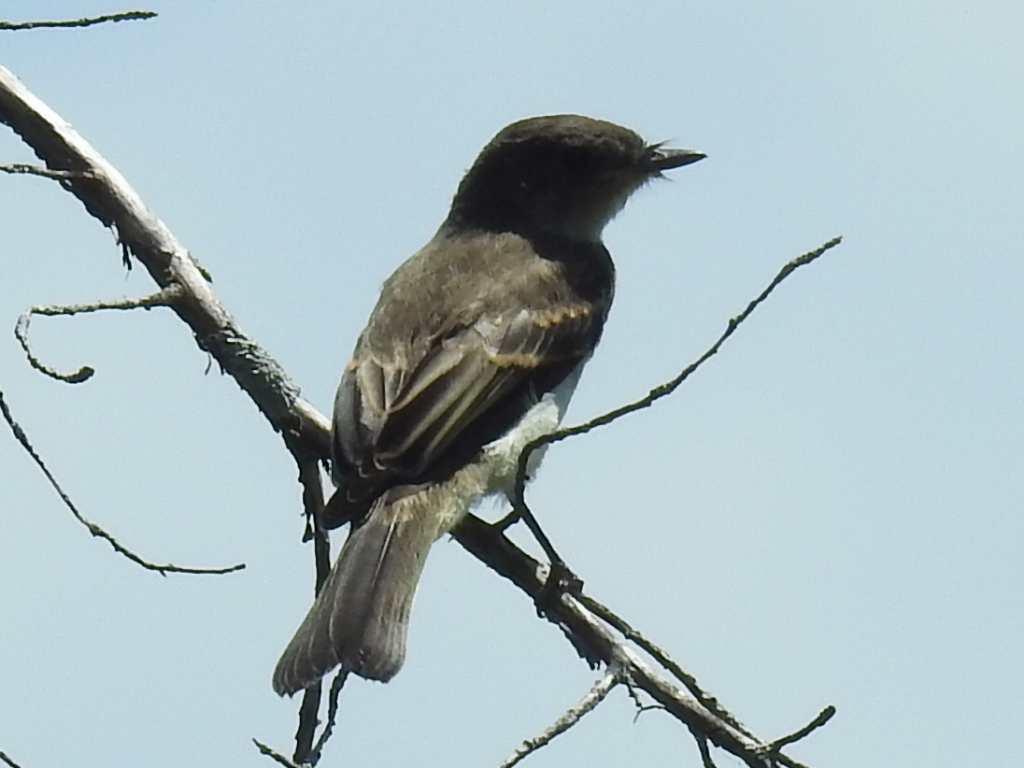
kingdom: Animalia
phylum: Chordata
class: Aves
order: Passeriformes
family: Tyrannidae
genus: Sayornis
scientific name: Sayornis phoebe
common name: Eastern phoebe
